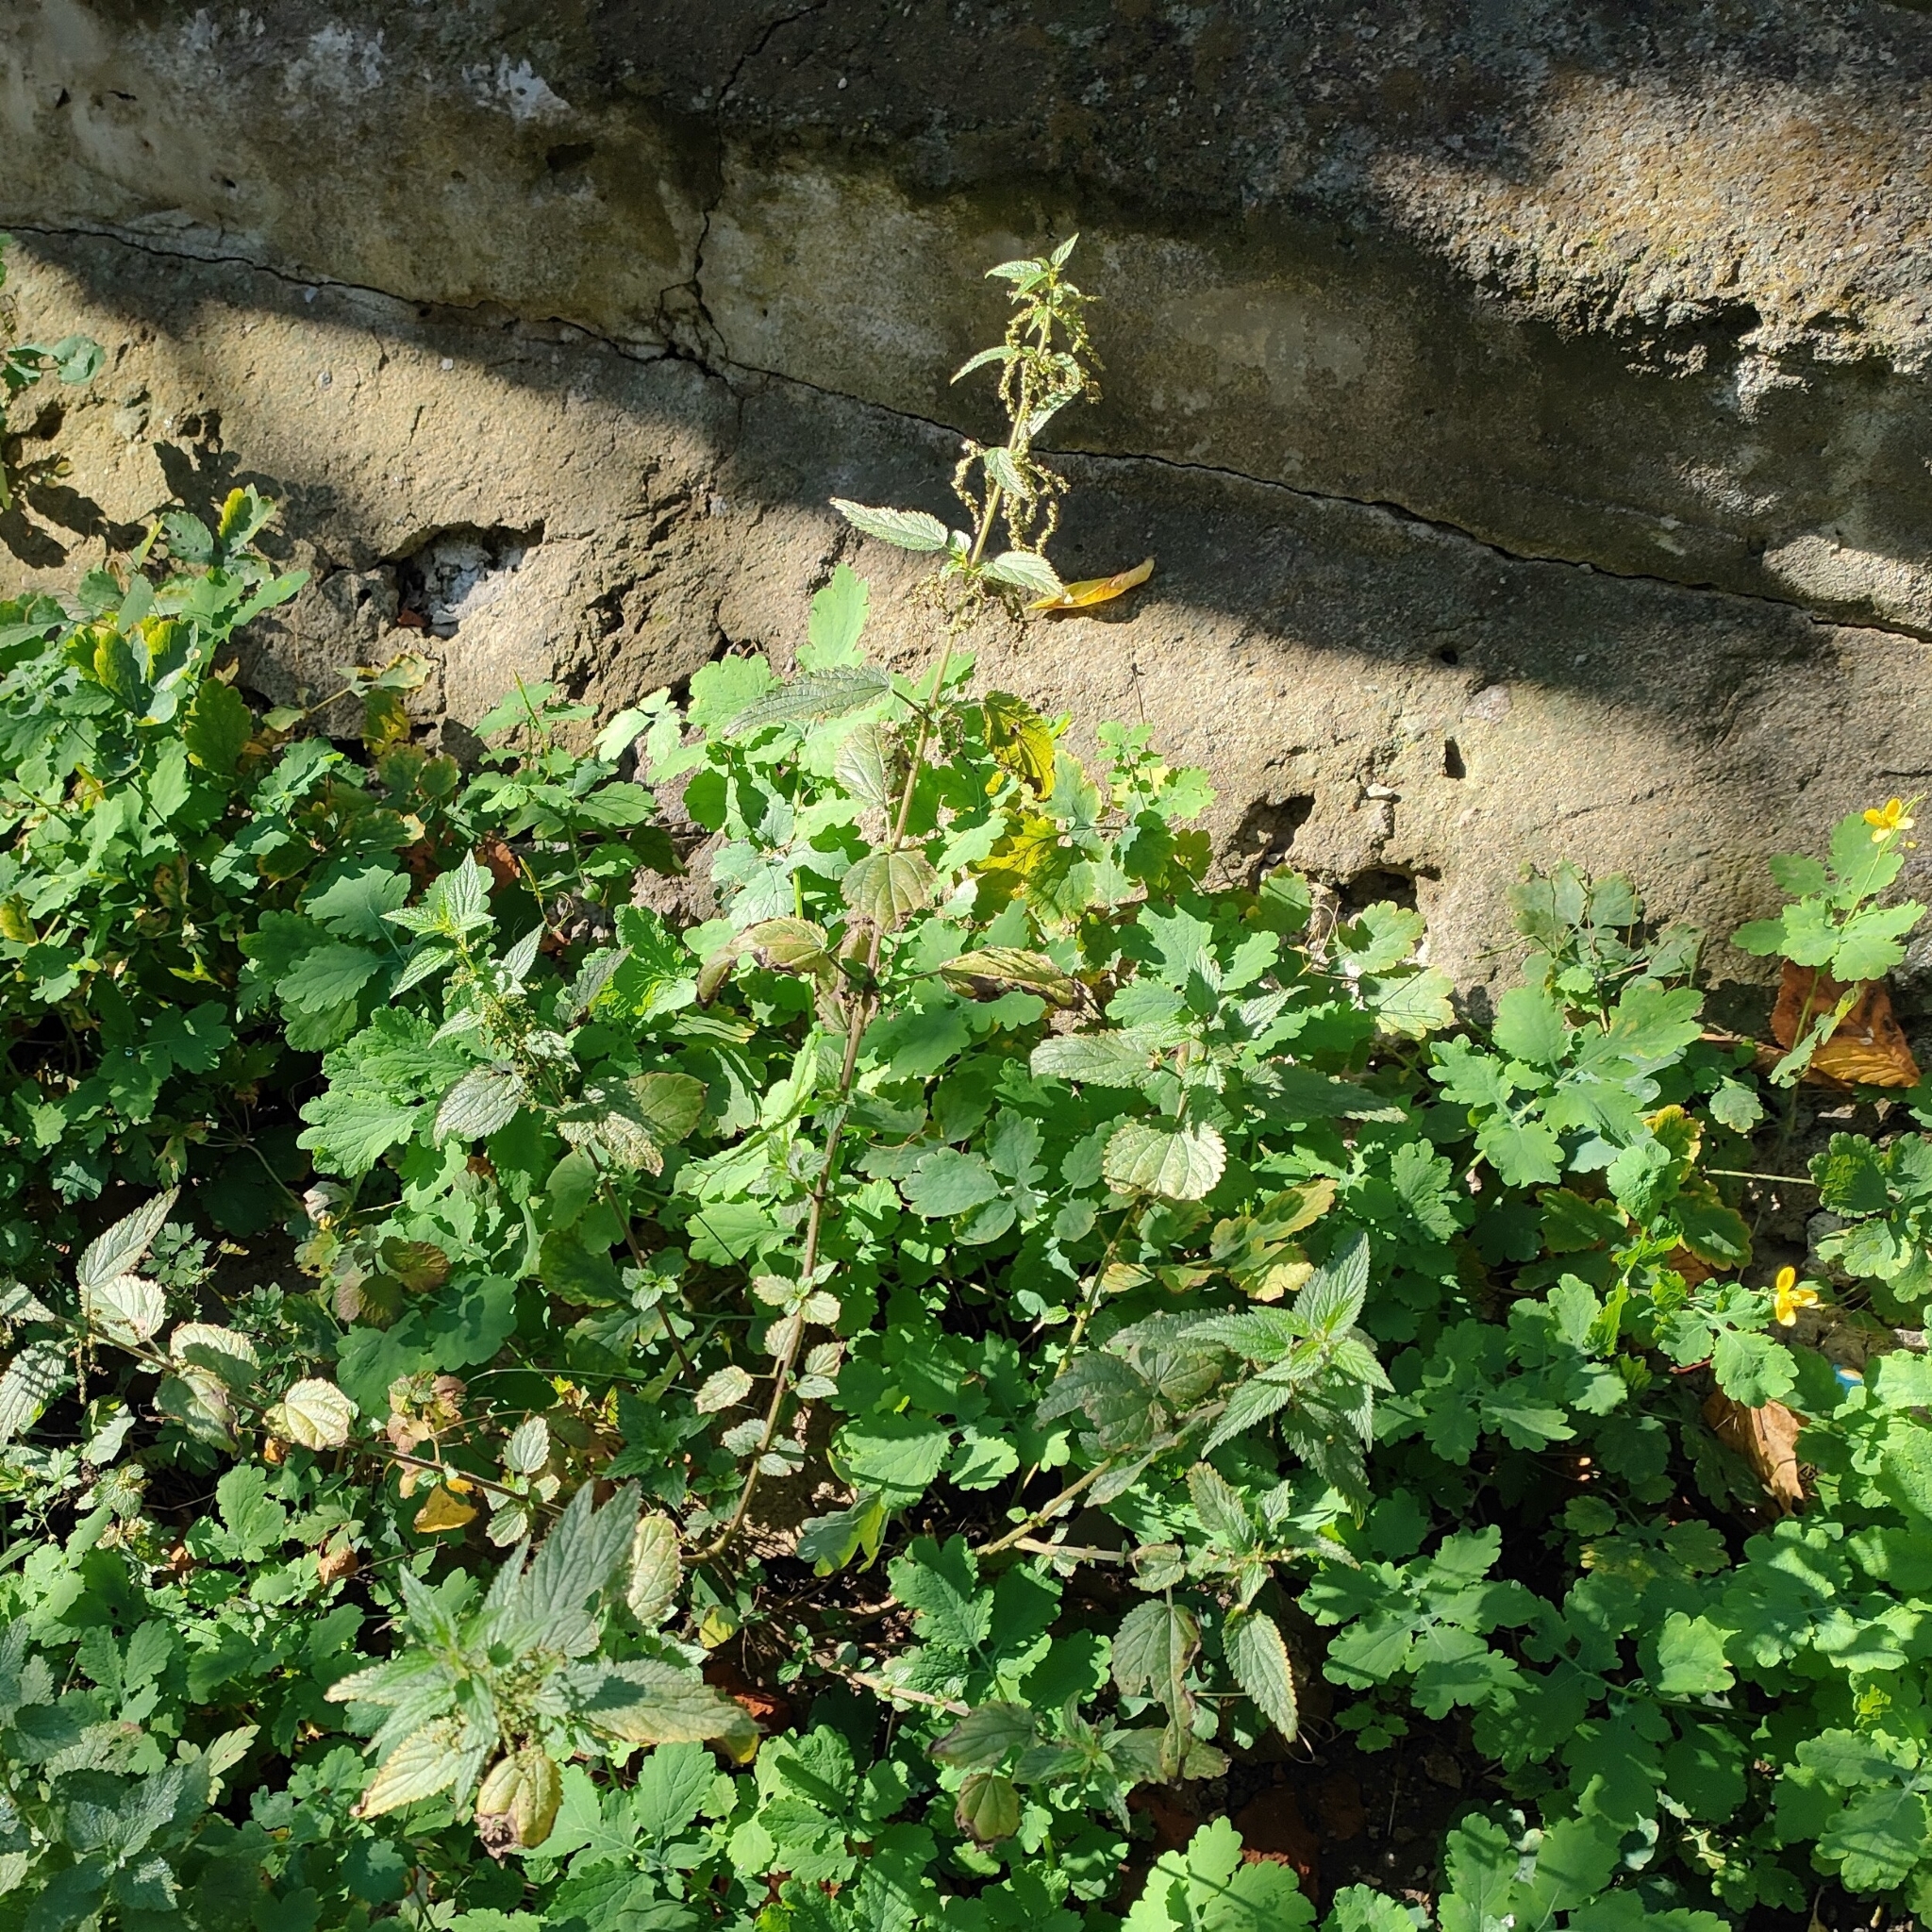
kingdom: Plantae
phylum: Tracheophyta
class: Magnoliopsida
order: Rosales
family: Urticaceae
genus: Urtica
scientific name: Urtica dioica
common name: Common nettle
